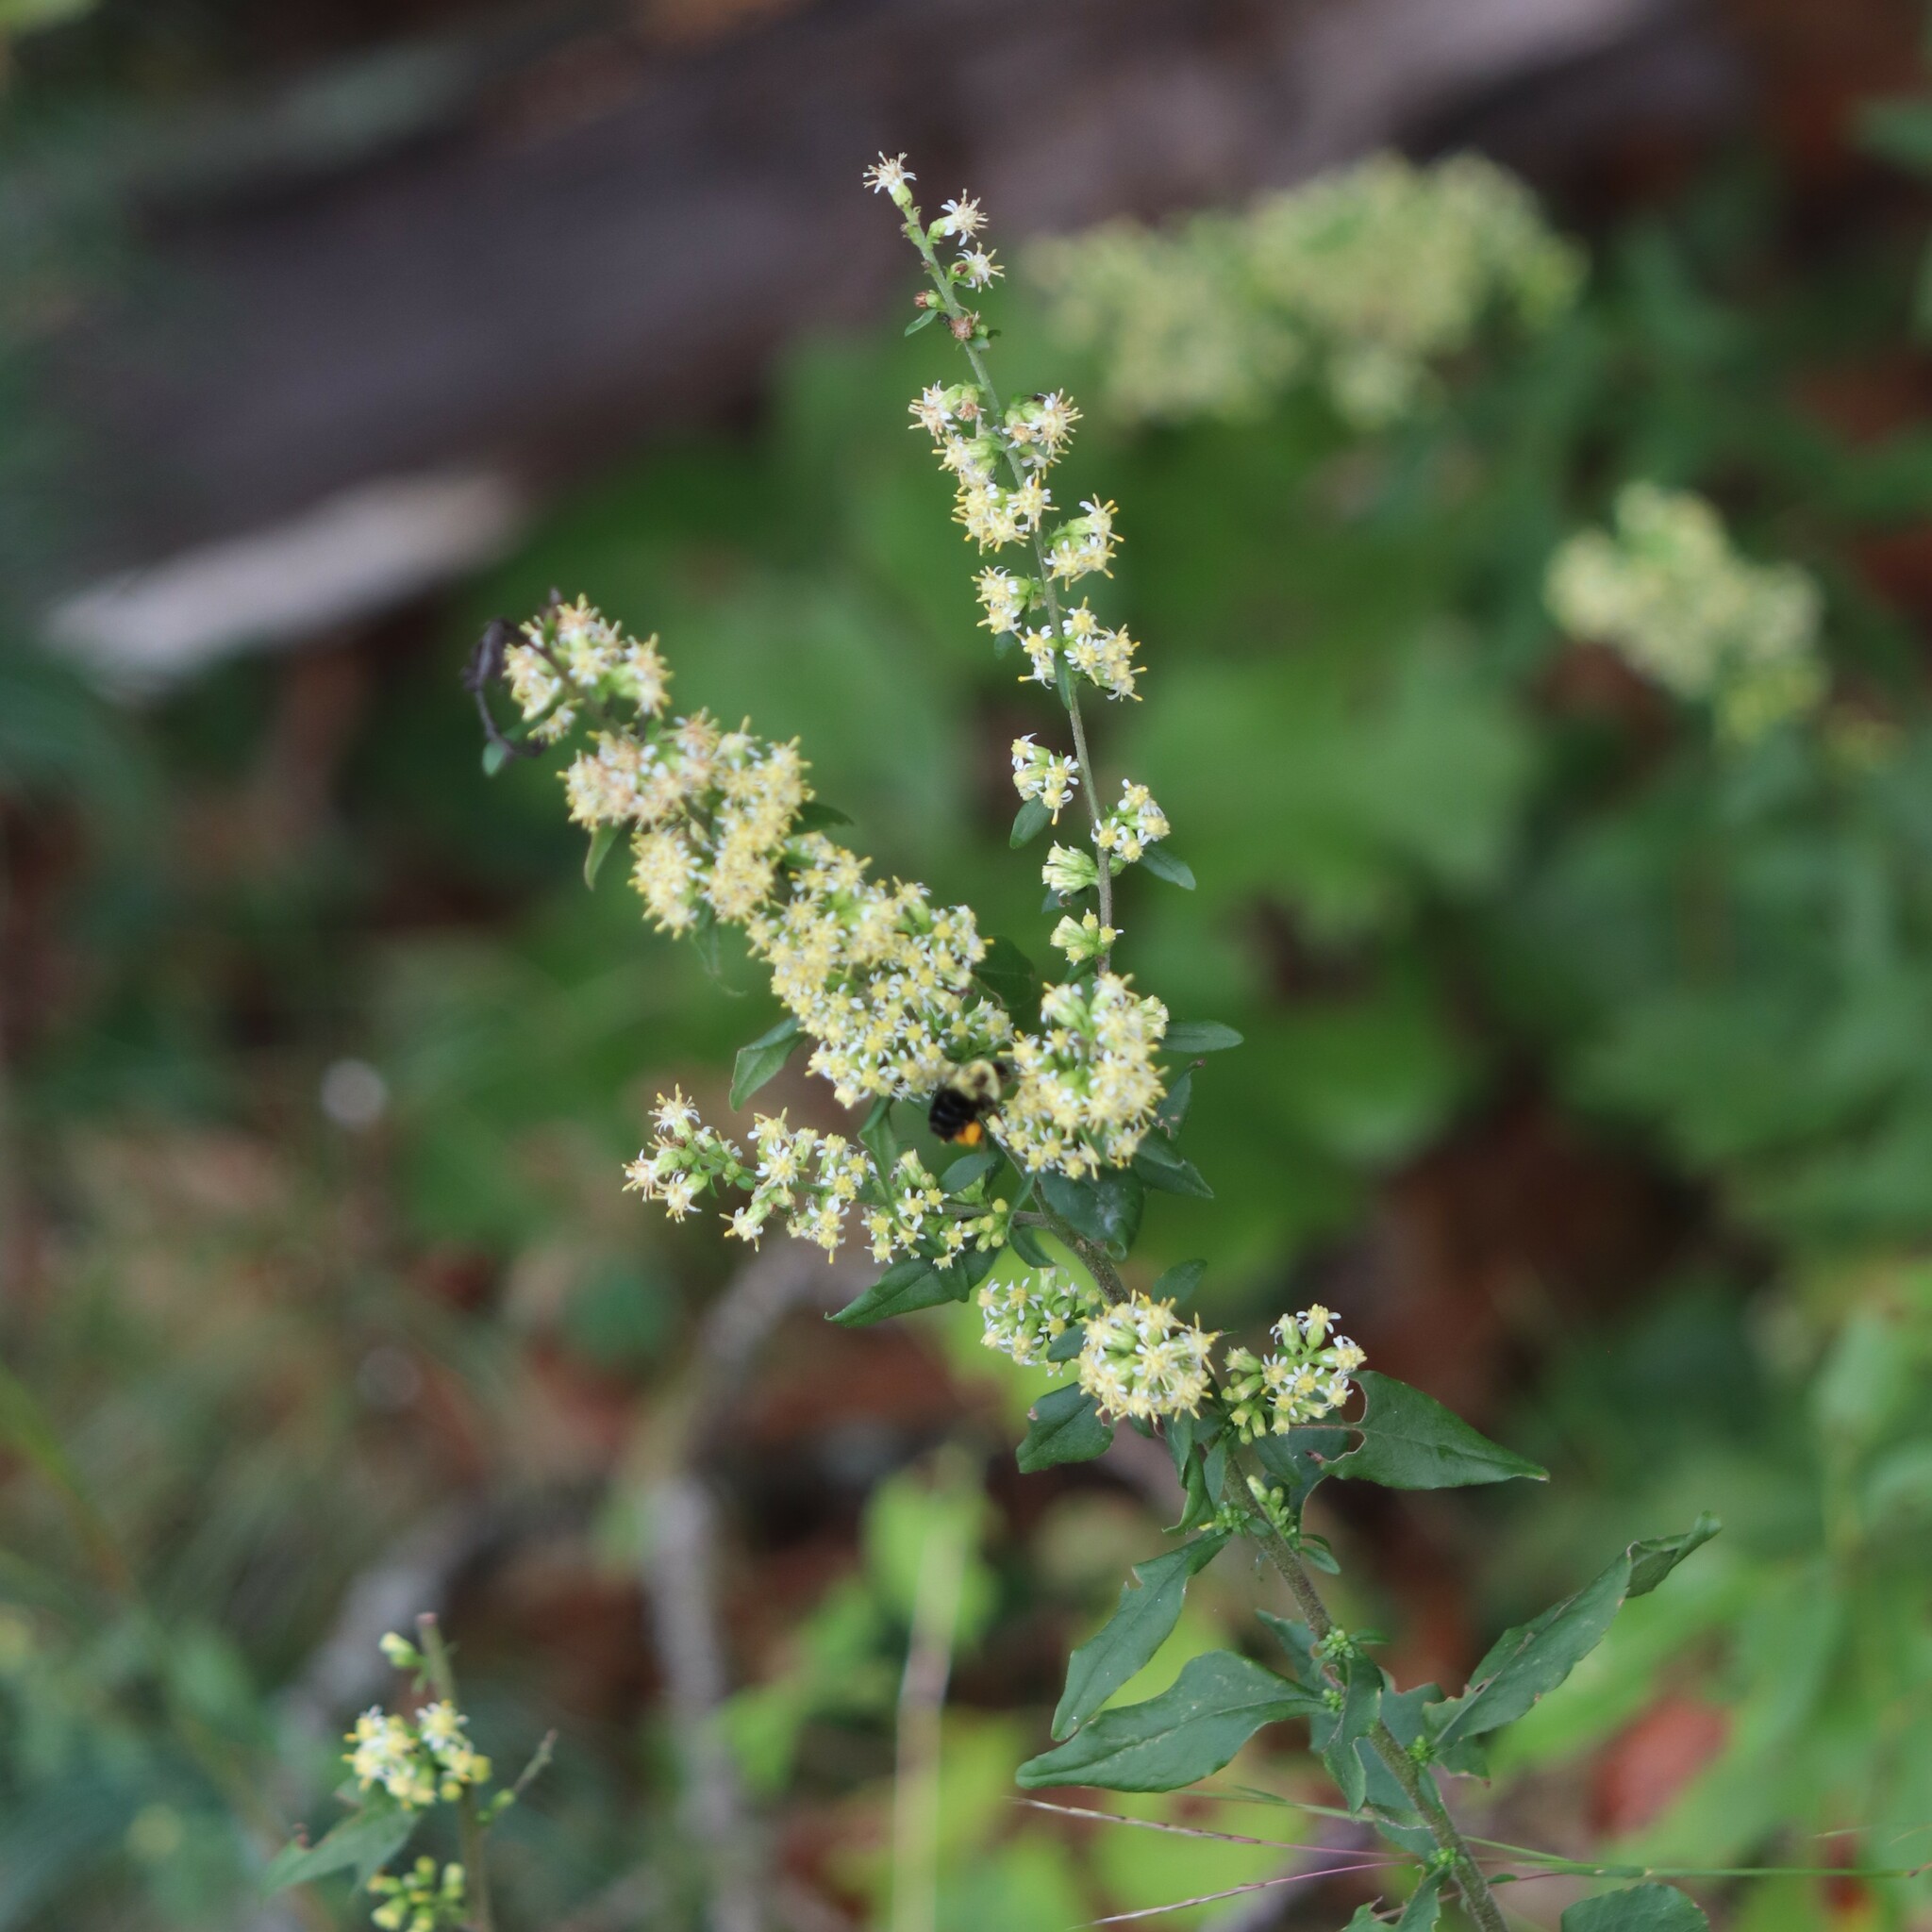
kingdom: Plantae
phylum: Tracheophyta
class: Magnoliopsida
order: Asterales
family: Asteraceae
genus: Solidago
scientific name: Solidago bicolor
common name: Silverrod
